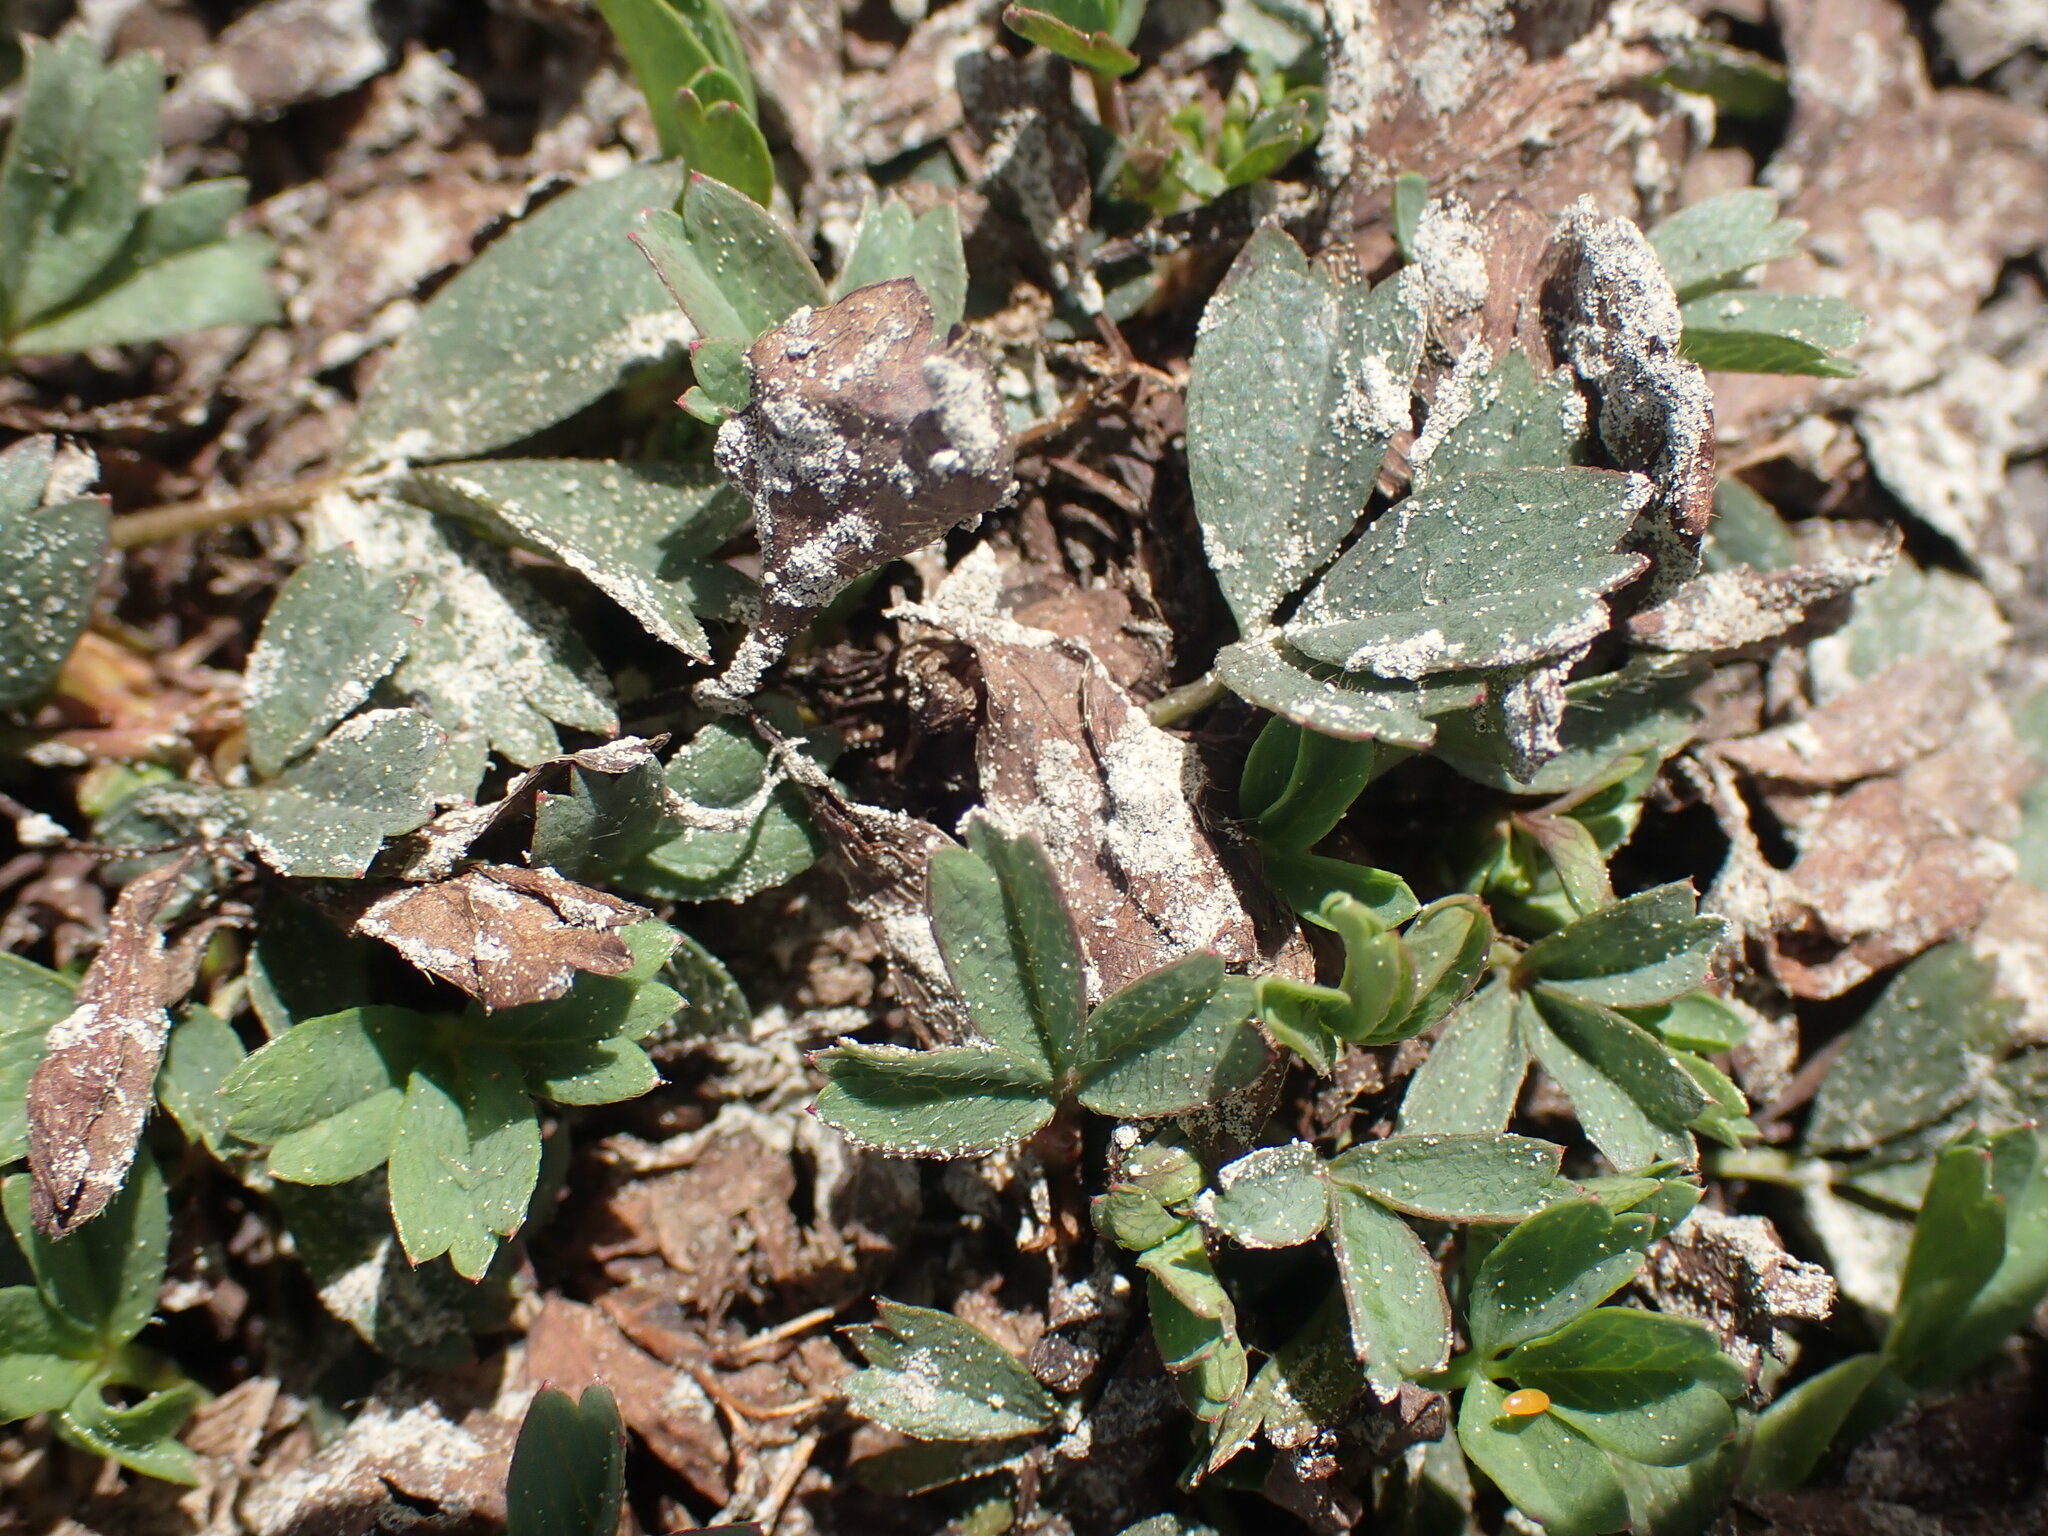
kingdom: Plantae
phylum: Tracheophyta
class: Magnoliopsida
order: Rosales
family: Rosaceae
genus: Sibbaldia
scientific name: Sibbaldia procumbens
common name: Creeping sibbaldia
